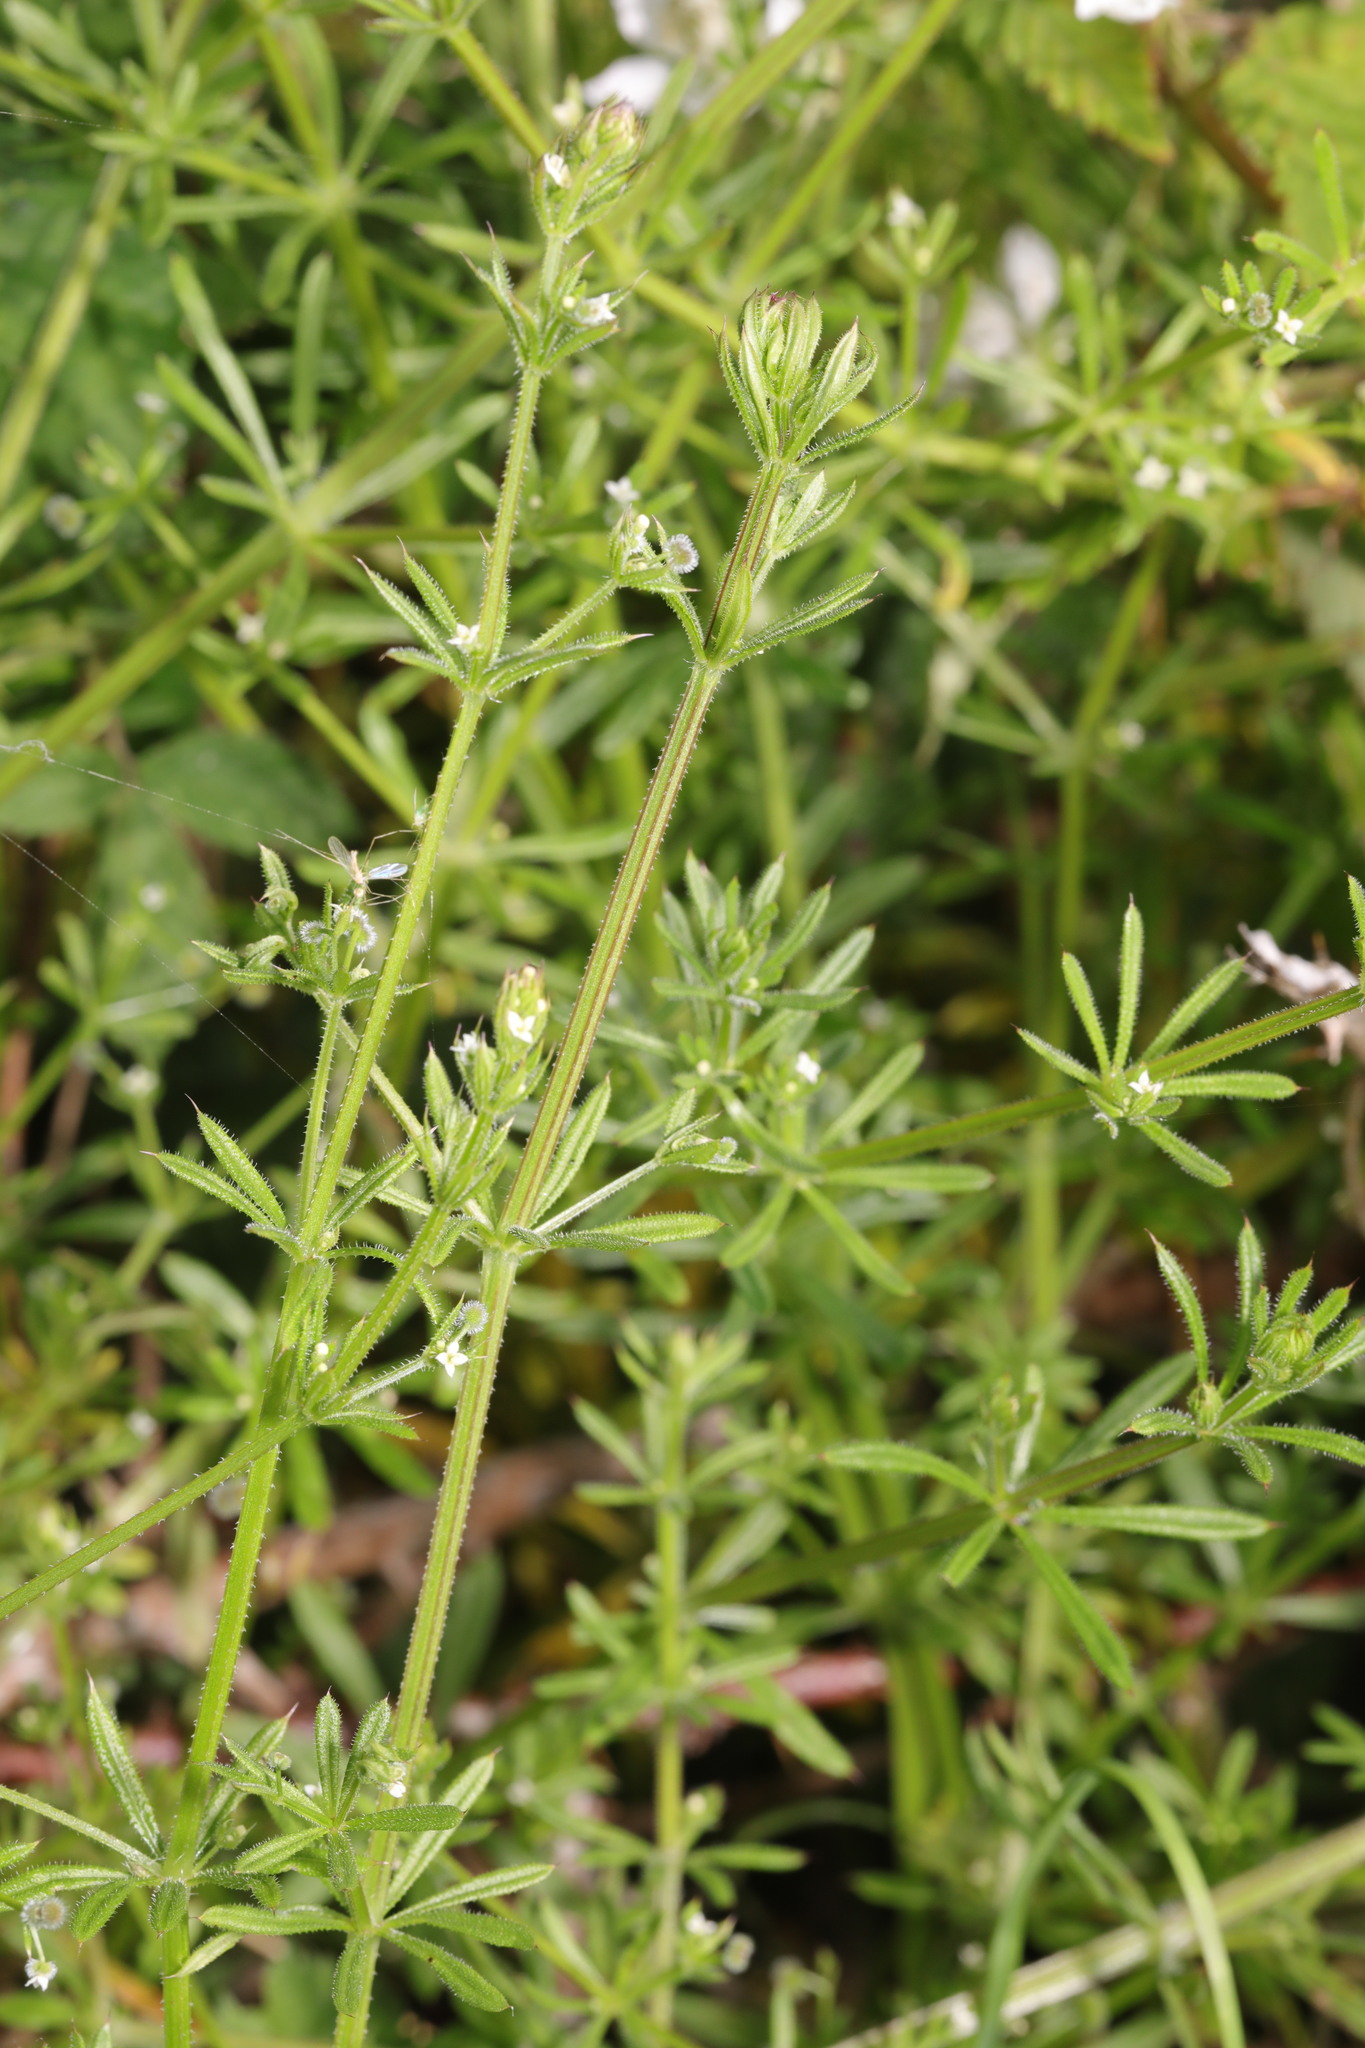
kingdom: Plantae
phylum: Tracheophyta
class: Magnoliopsida
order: Gentianales
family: Rubiaceae
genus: Galium
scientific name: Galium aparine
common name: Cleavers
